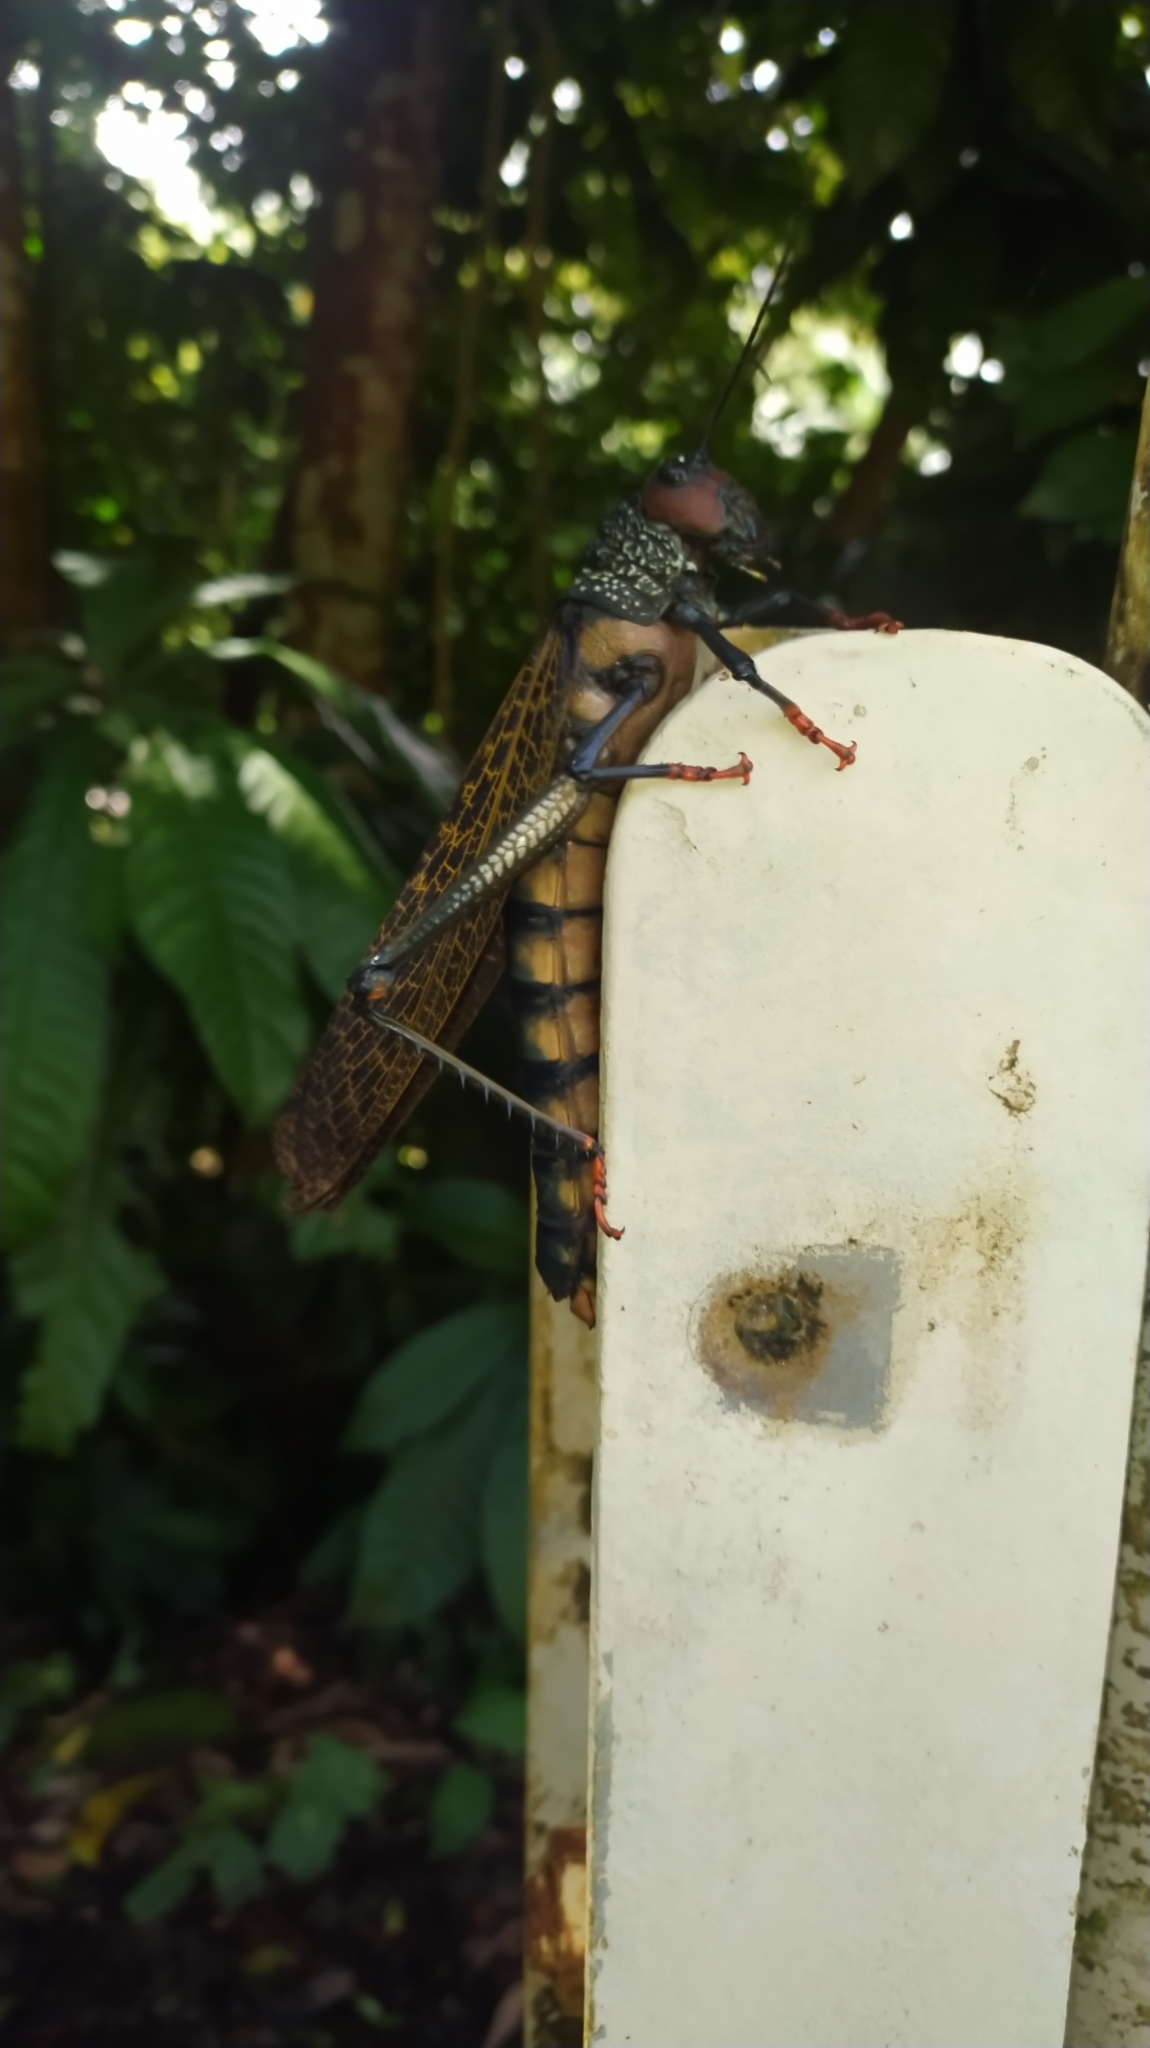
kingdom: Animalia
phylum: Arthropoda
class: Insecta
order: Orthoptera
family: Romaleidae
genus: Tropidacris
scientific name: Tropidacris cristata
